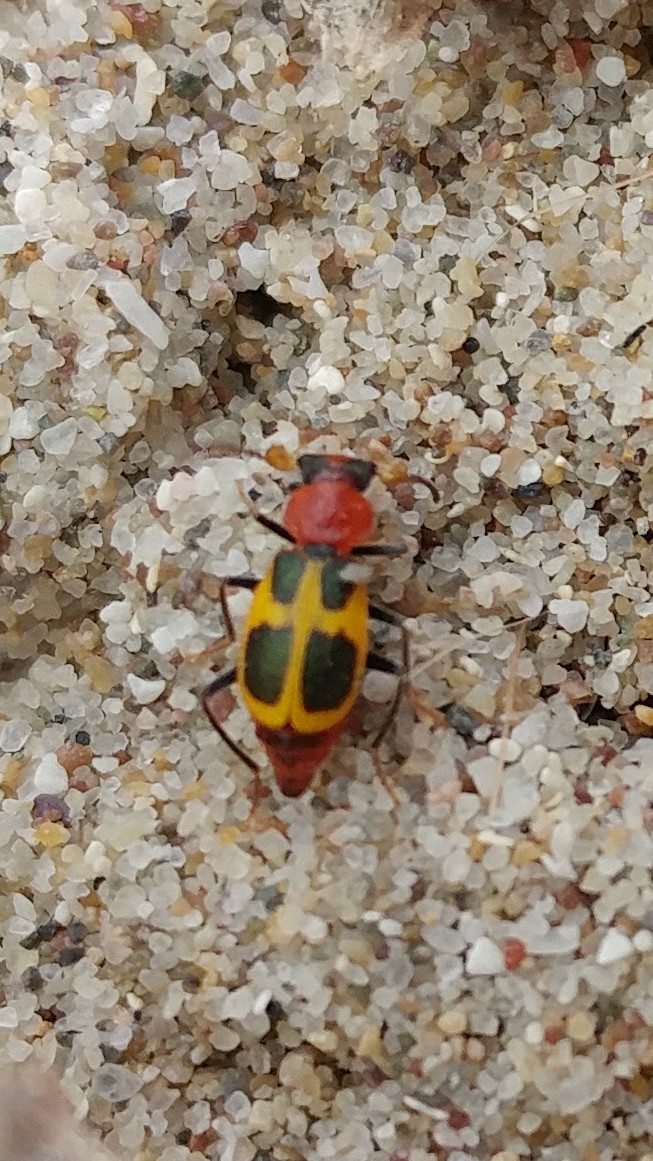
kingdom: Animalia
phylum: Arthropoda
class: Insecta
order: Coleoptera
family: Melyridae
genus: Collops
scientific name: Collops
